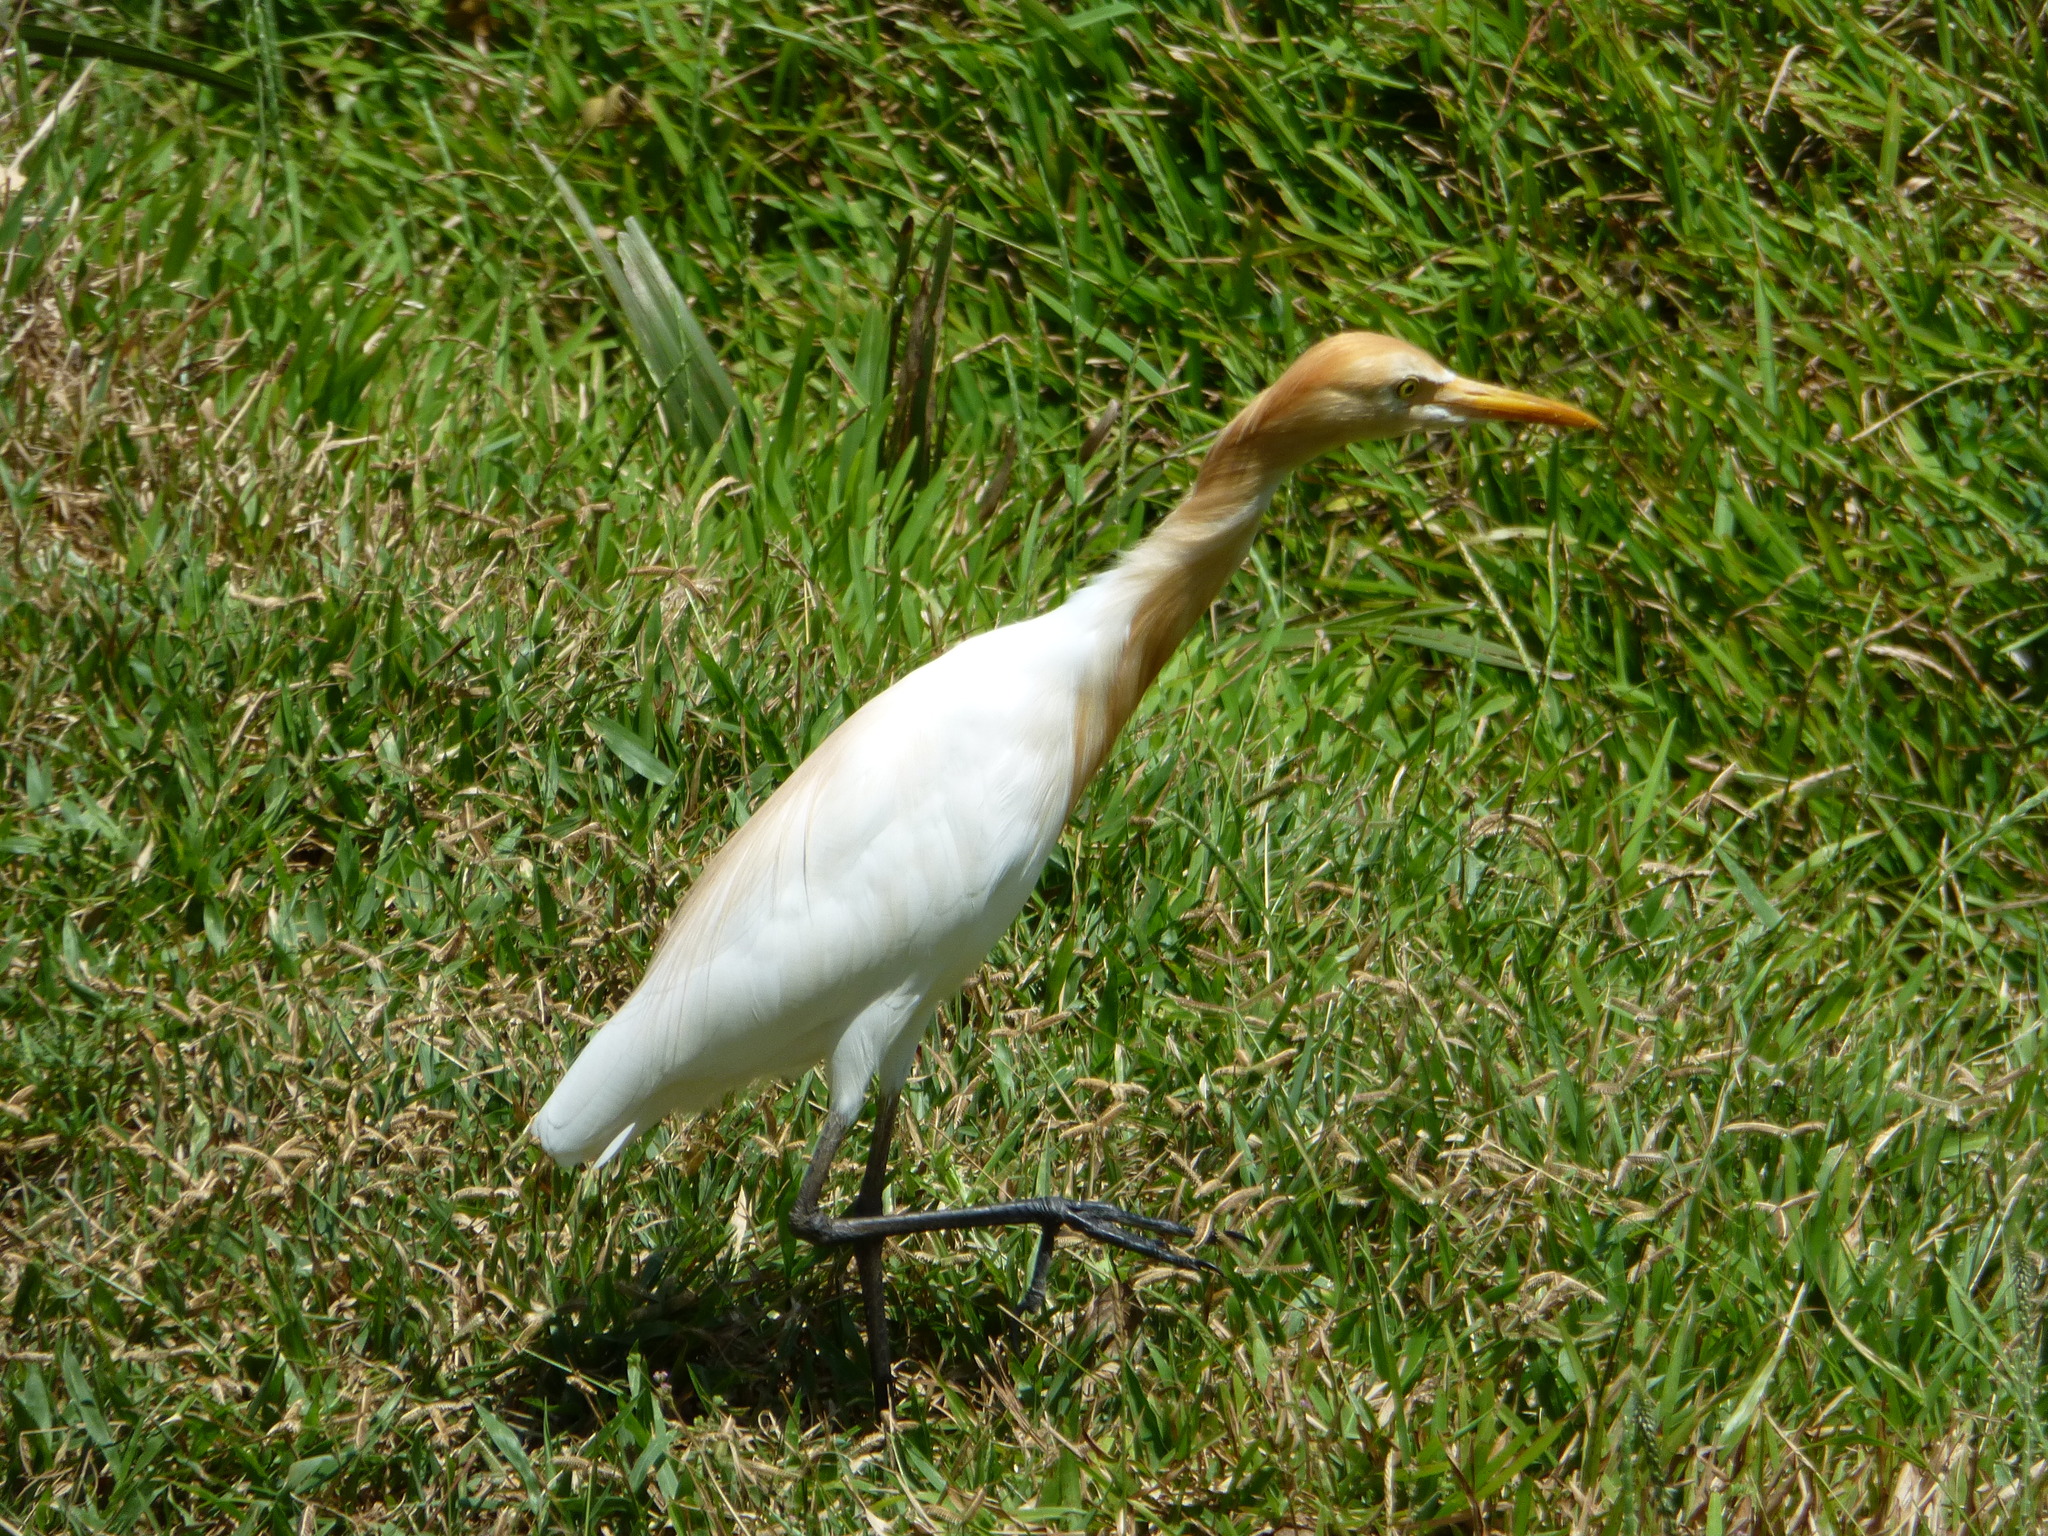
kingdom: Animalia
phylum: Chordata
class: Aves
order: Pelecaniformes
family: Ardeidae
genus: Bubulcus
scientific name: Bubulcus coromandus
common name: Eastern cattle egret
